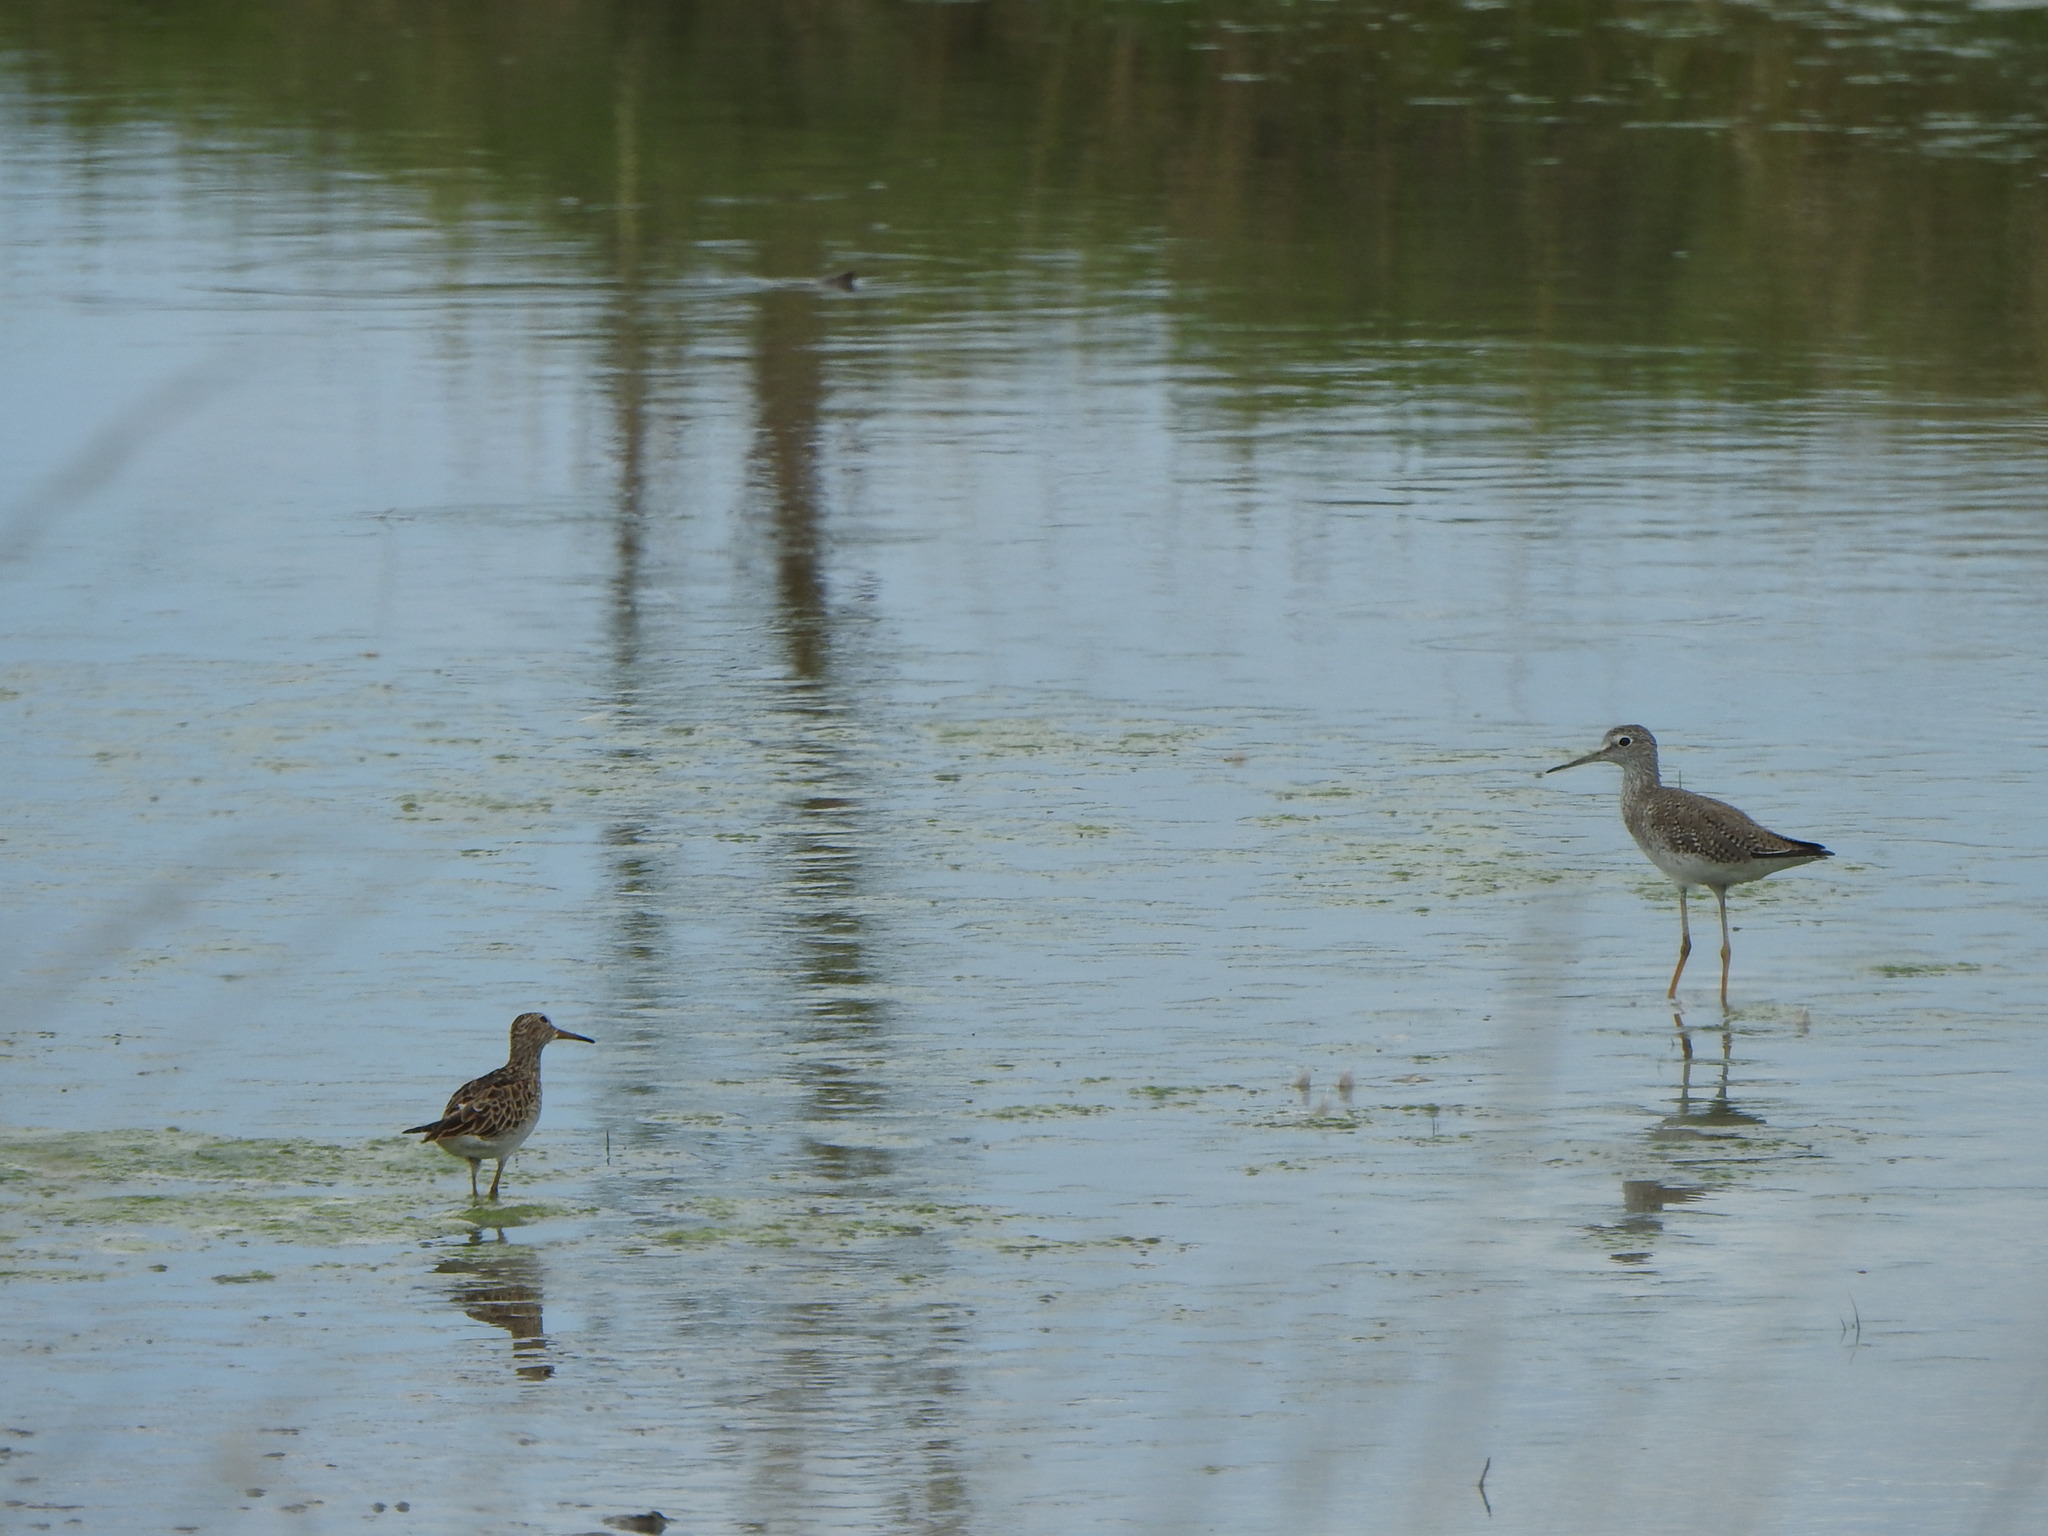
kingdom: Animalia
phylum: Chordata
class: Aves
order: Charadriiformes
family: Scolopacidae
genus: Tringa
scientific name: Tringa melanoleuca
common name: Greater yellowlegs
